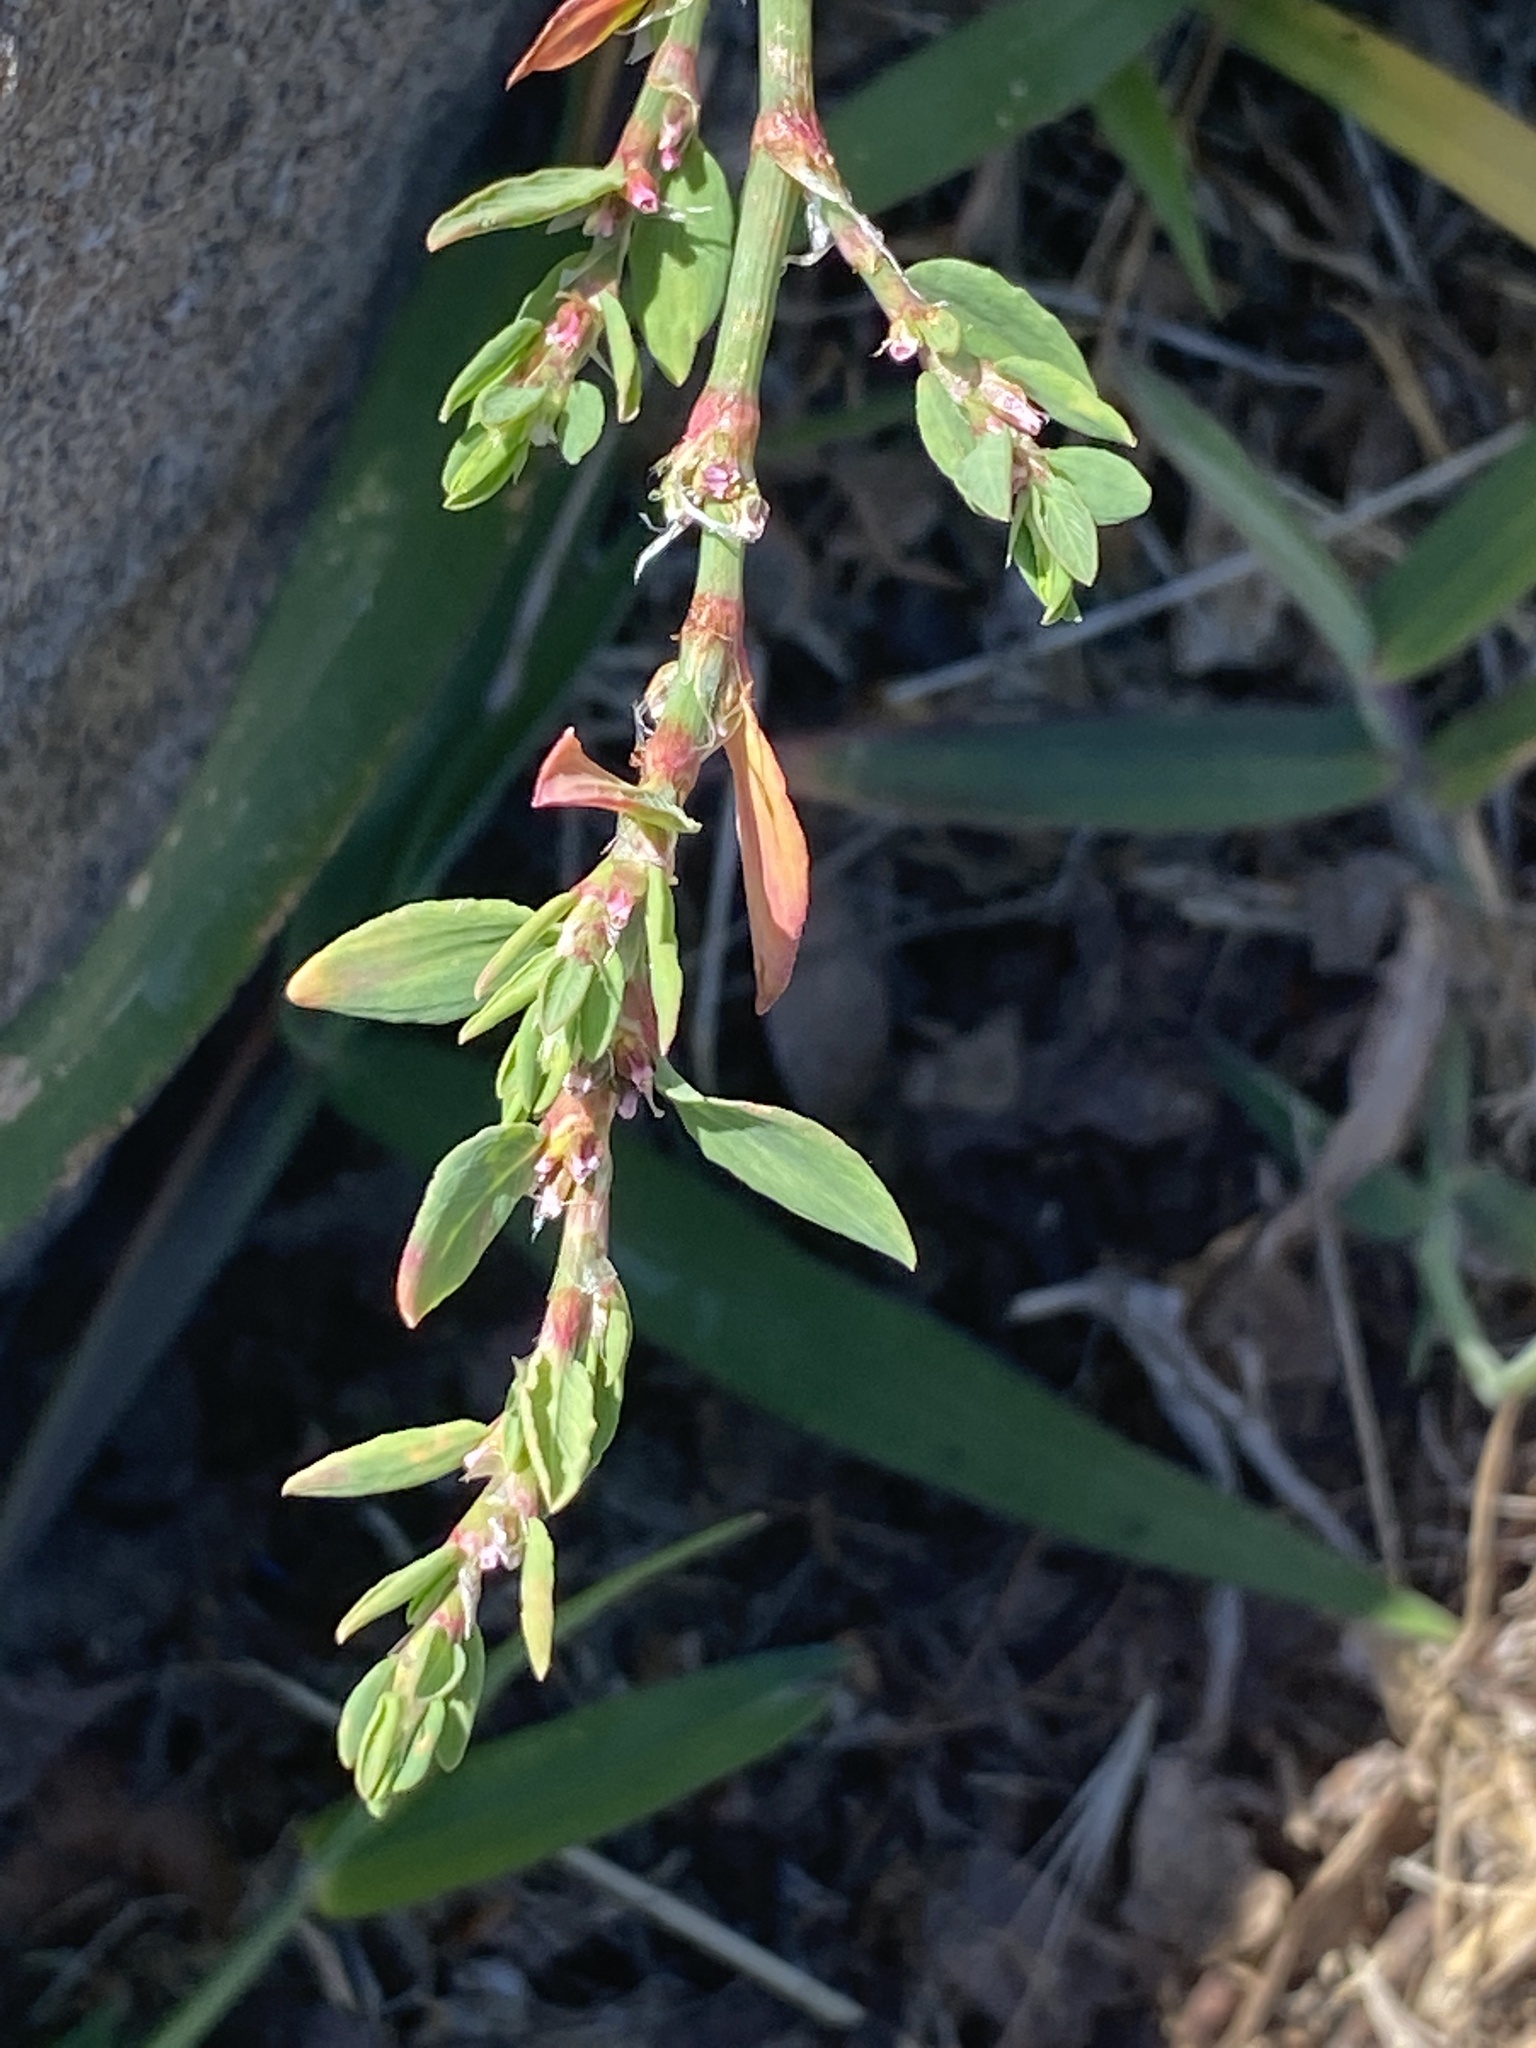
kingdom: Plantae
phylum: Tracheophyta
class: Magnoliopsida
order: Caryophyllales
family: Polygonaceae
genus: Polygonum
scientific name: Polygonum aviculare
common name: Prostrate knotweed
